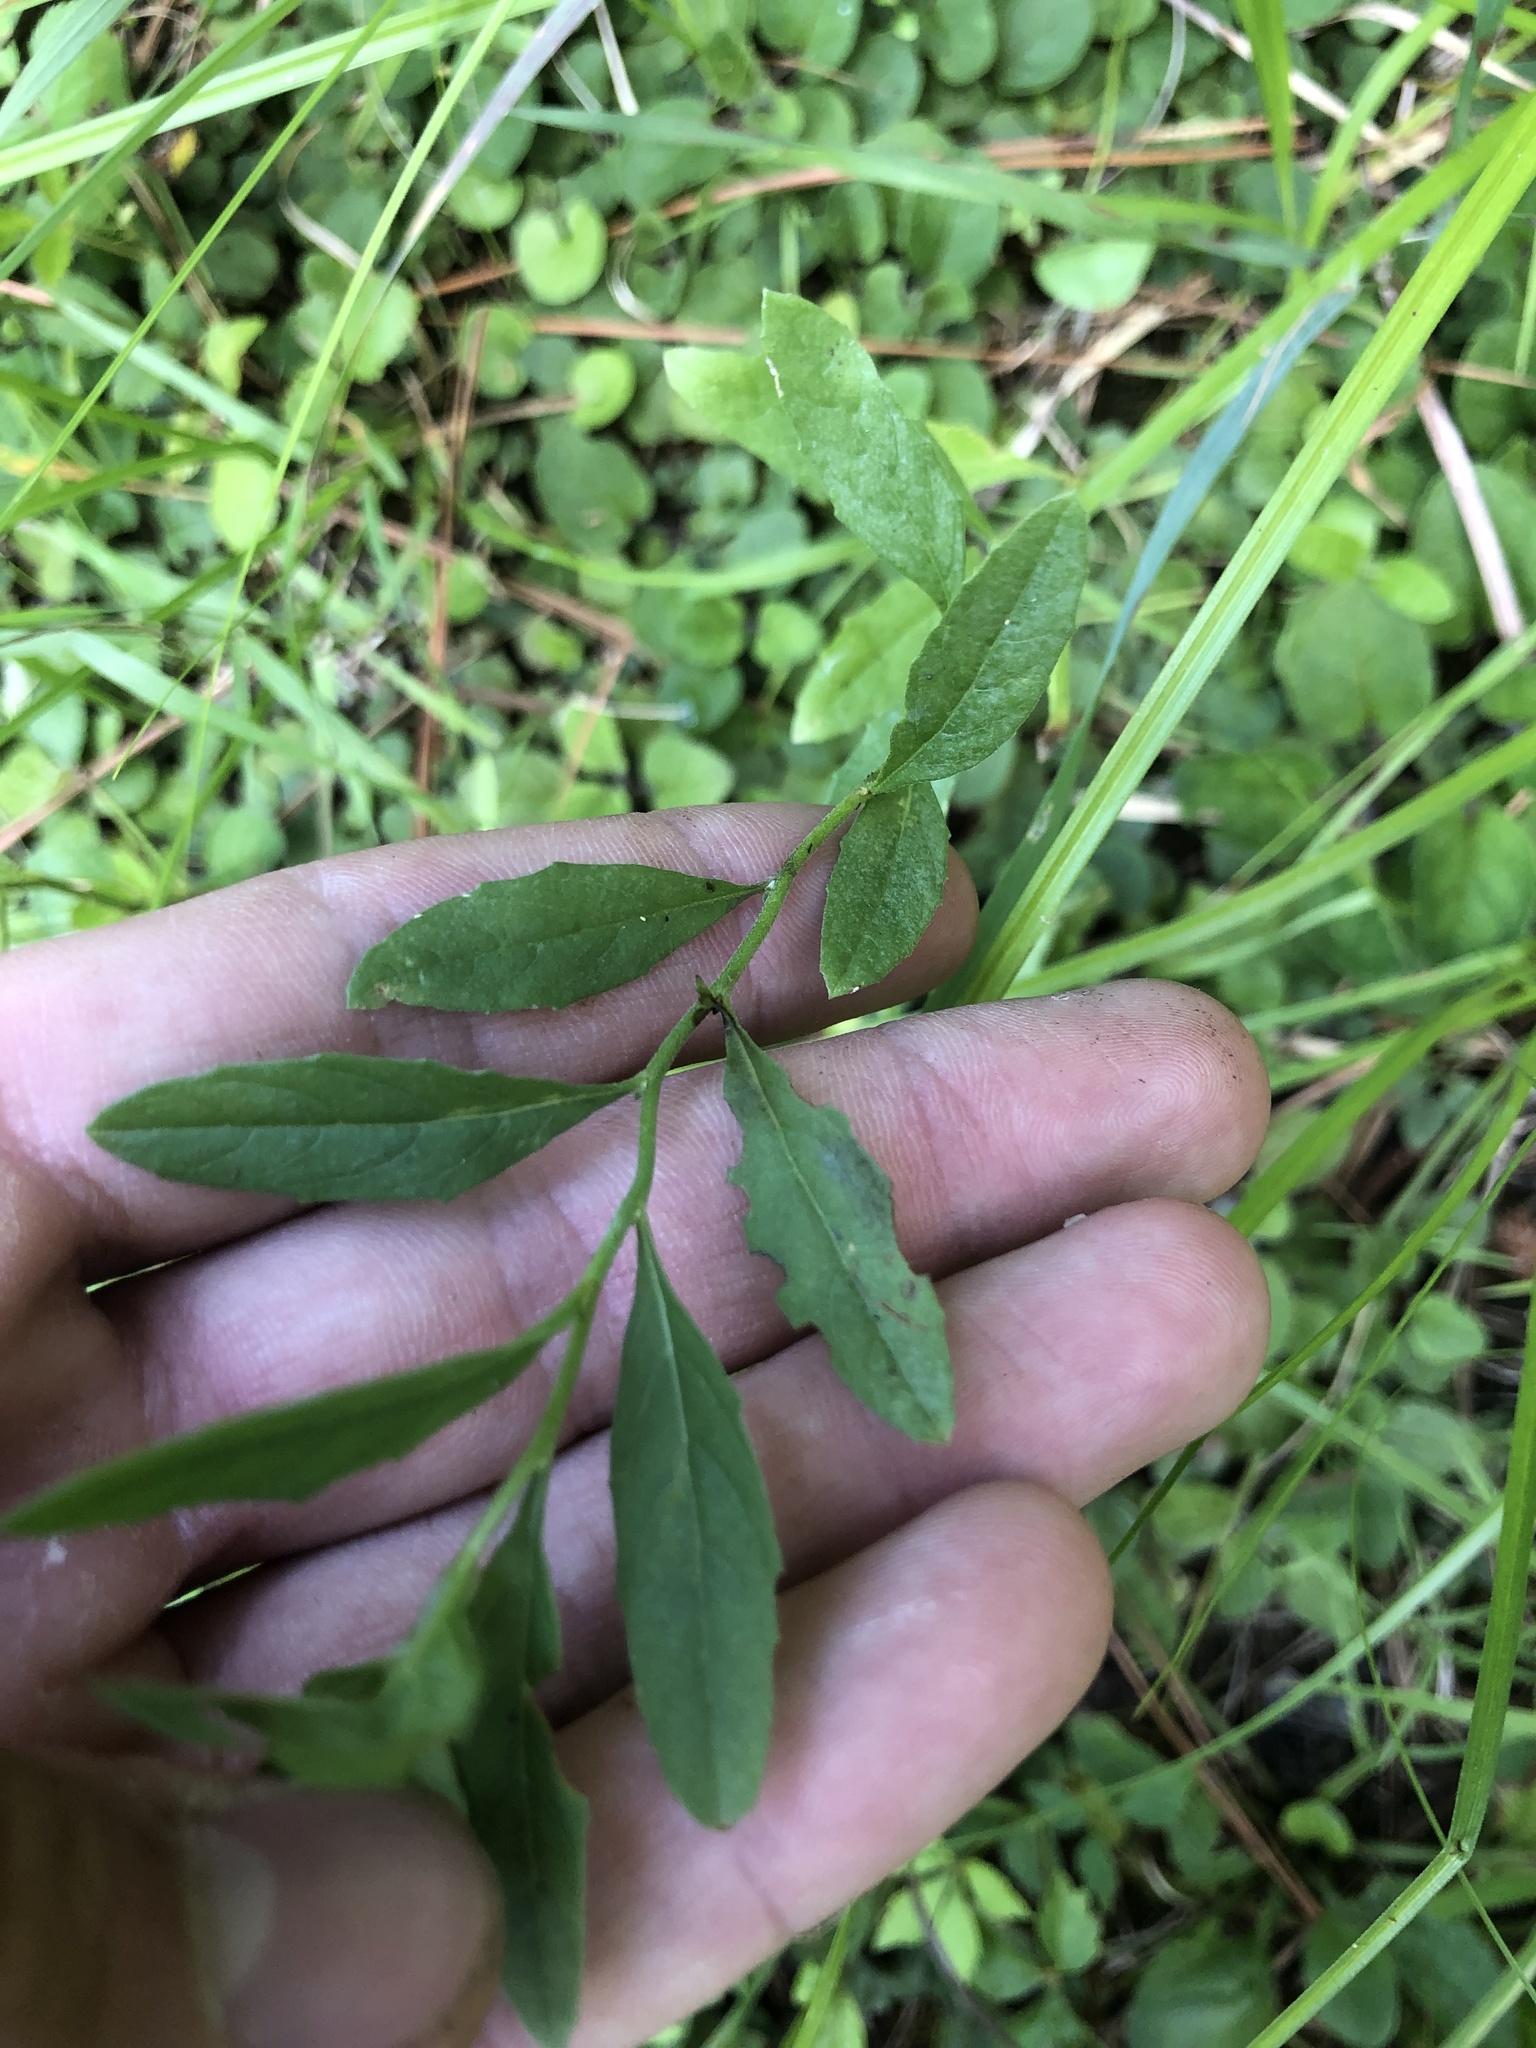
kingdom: Plantae
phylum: Tracheophyta
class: Magnoliopsida
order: Myrtales
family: Onagraceae
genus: Oenothera
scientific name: Oenothera speciosa
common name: White evening-primrose
